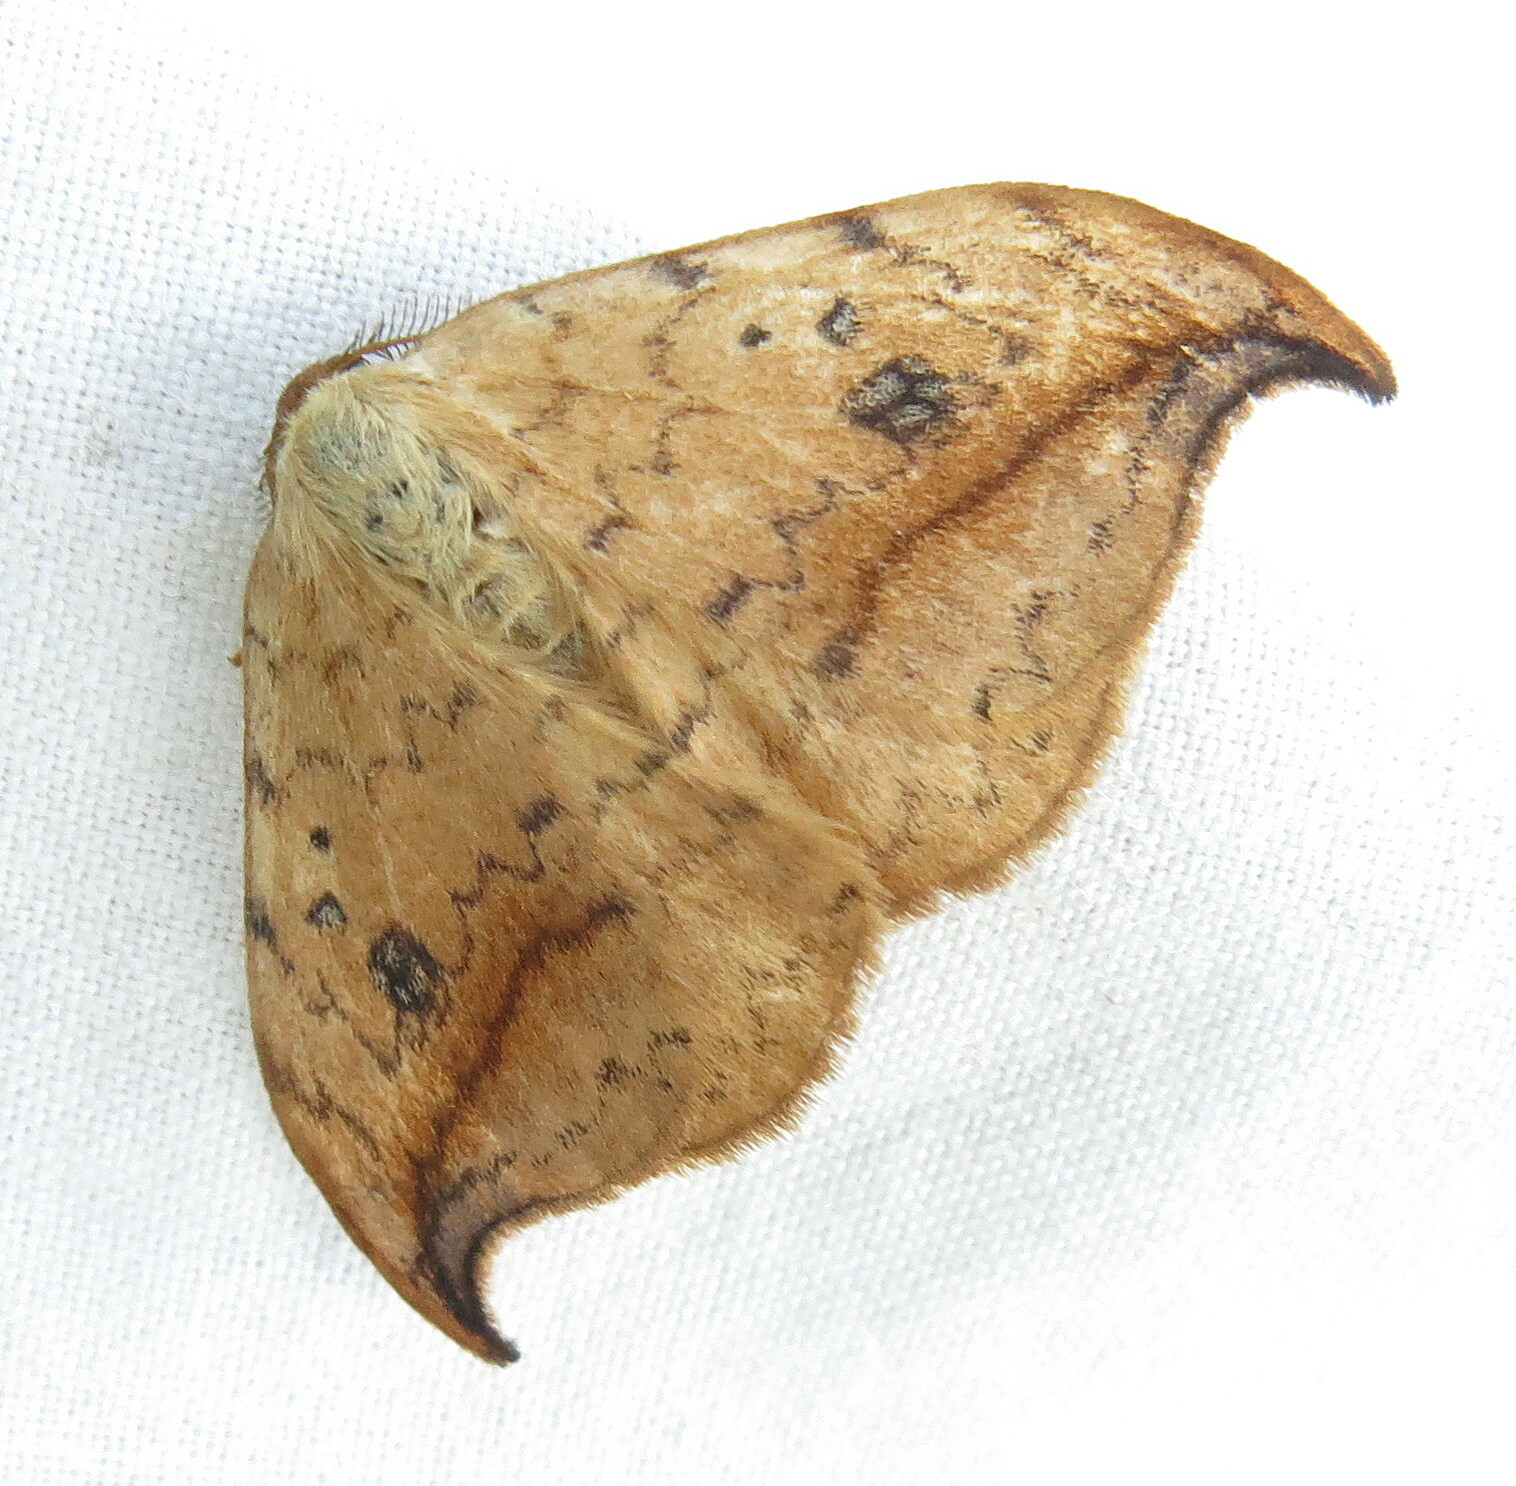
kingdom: Animalia
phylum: Arthropoda
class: Insecta
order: Lepidoptera
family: Drepanidae
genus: Drepana
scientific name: Drepana falcataria
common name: Pebble hook-tip
